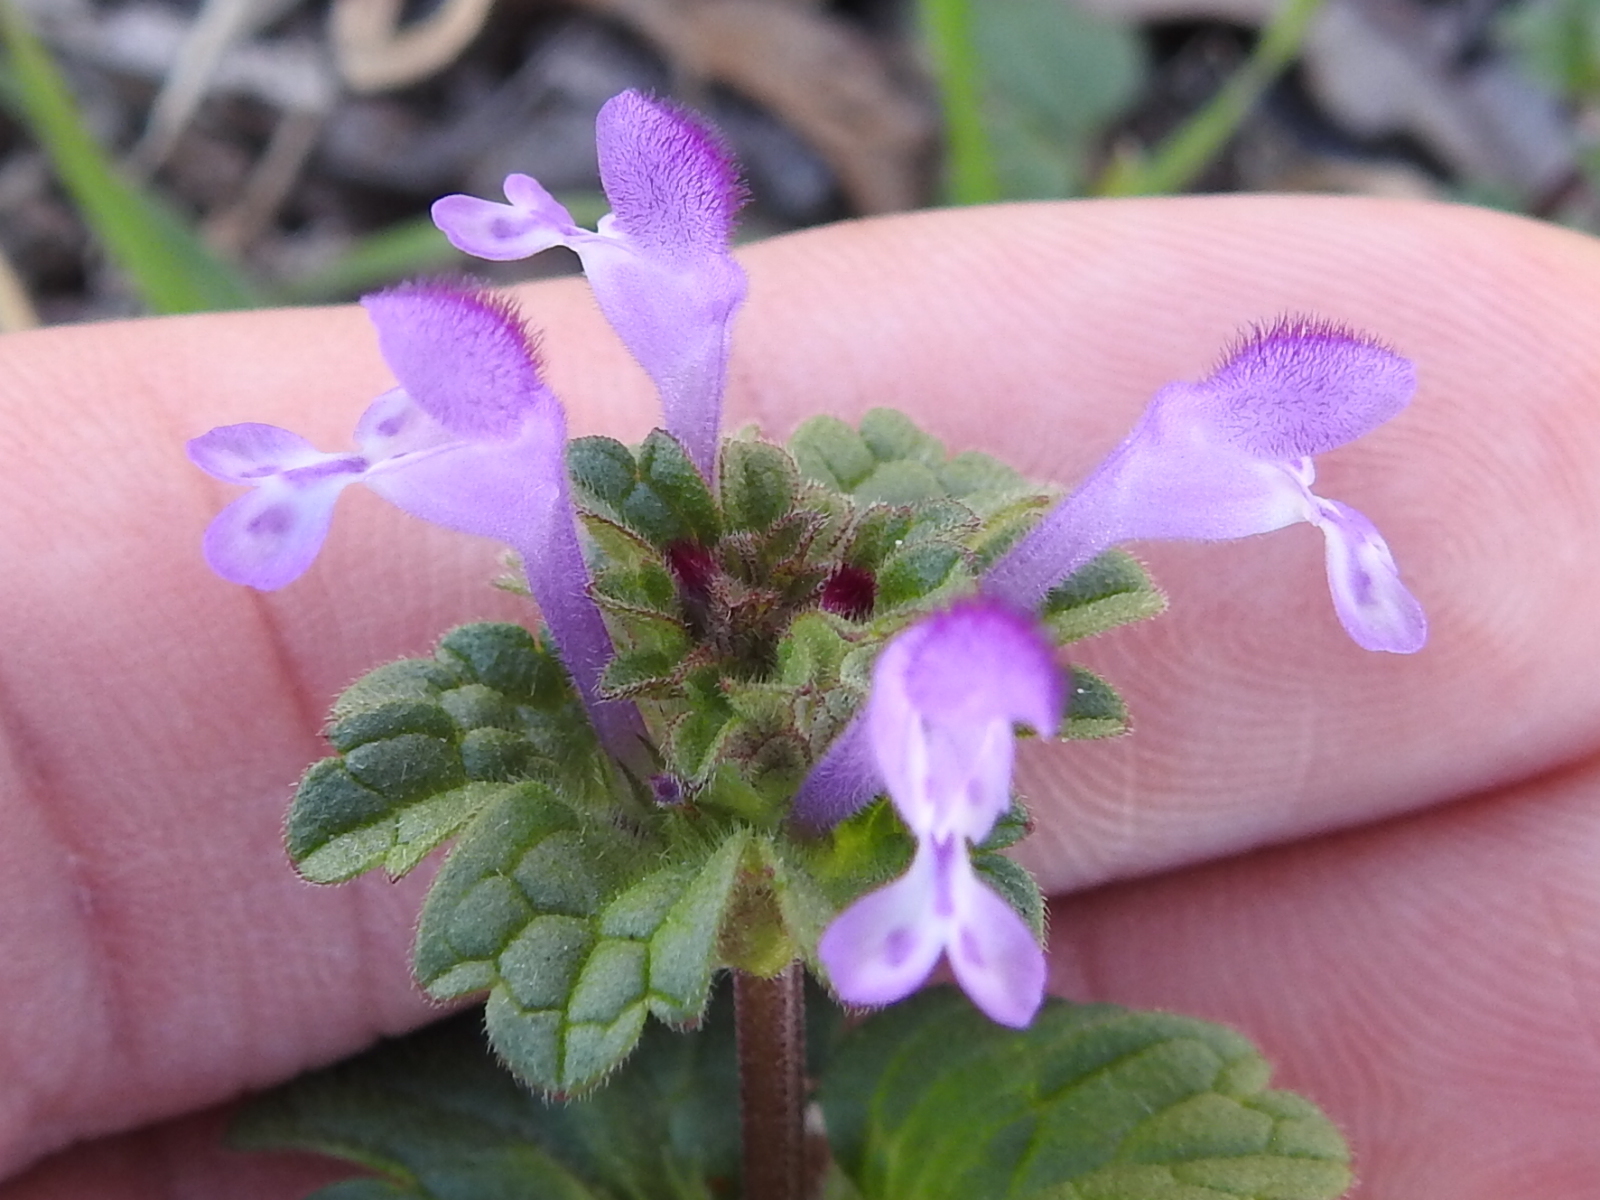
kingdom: Plantae
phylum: Tracheophyta
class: Magnoliopsida
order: Lamiales
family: Lamiaceae
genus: Lamium
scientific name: Lamium amplexicaule
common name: Henbit dead-nettle
